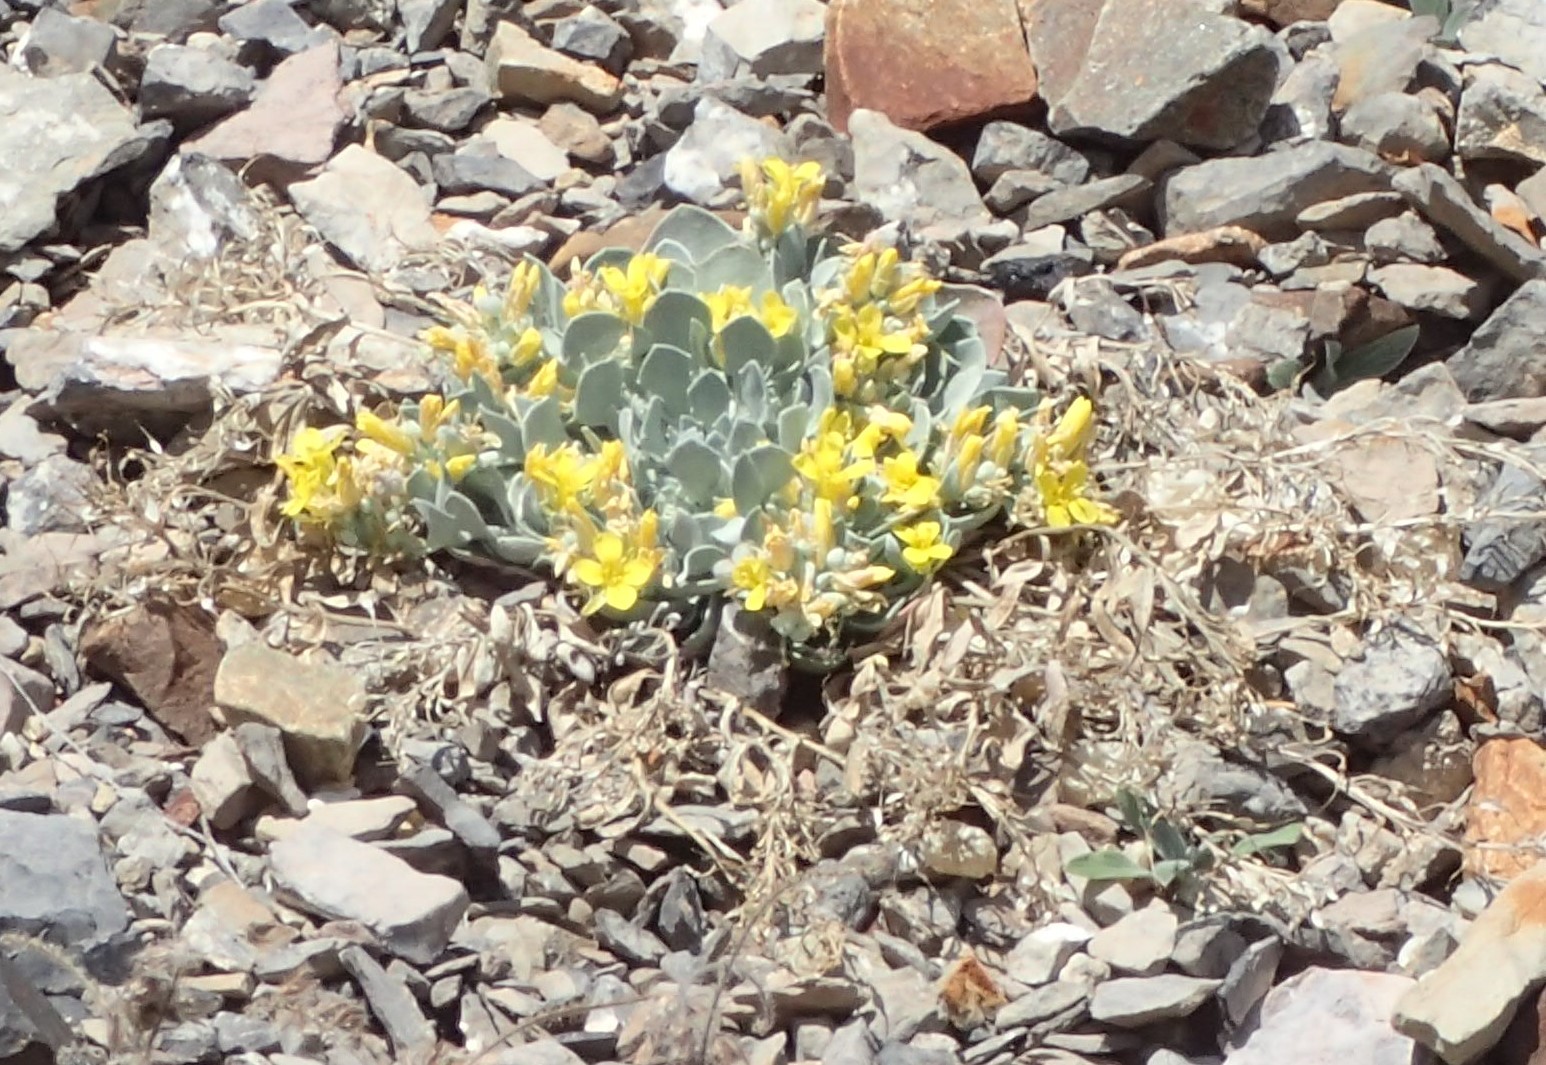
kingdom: Plantae
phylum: Tracheophyta
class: Magnoliopsida
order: Brassicales
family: Brassicaceae
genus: Physaria
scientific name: Physaria didymocarpa
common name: Common twinpod
